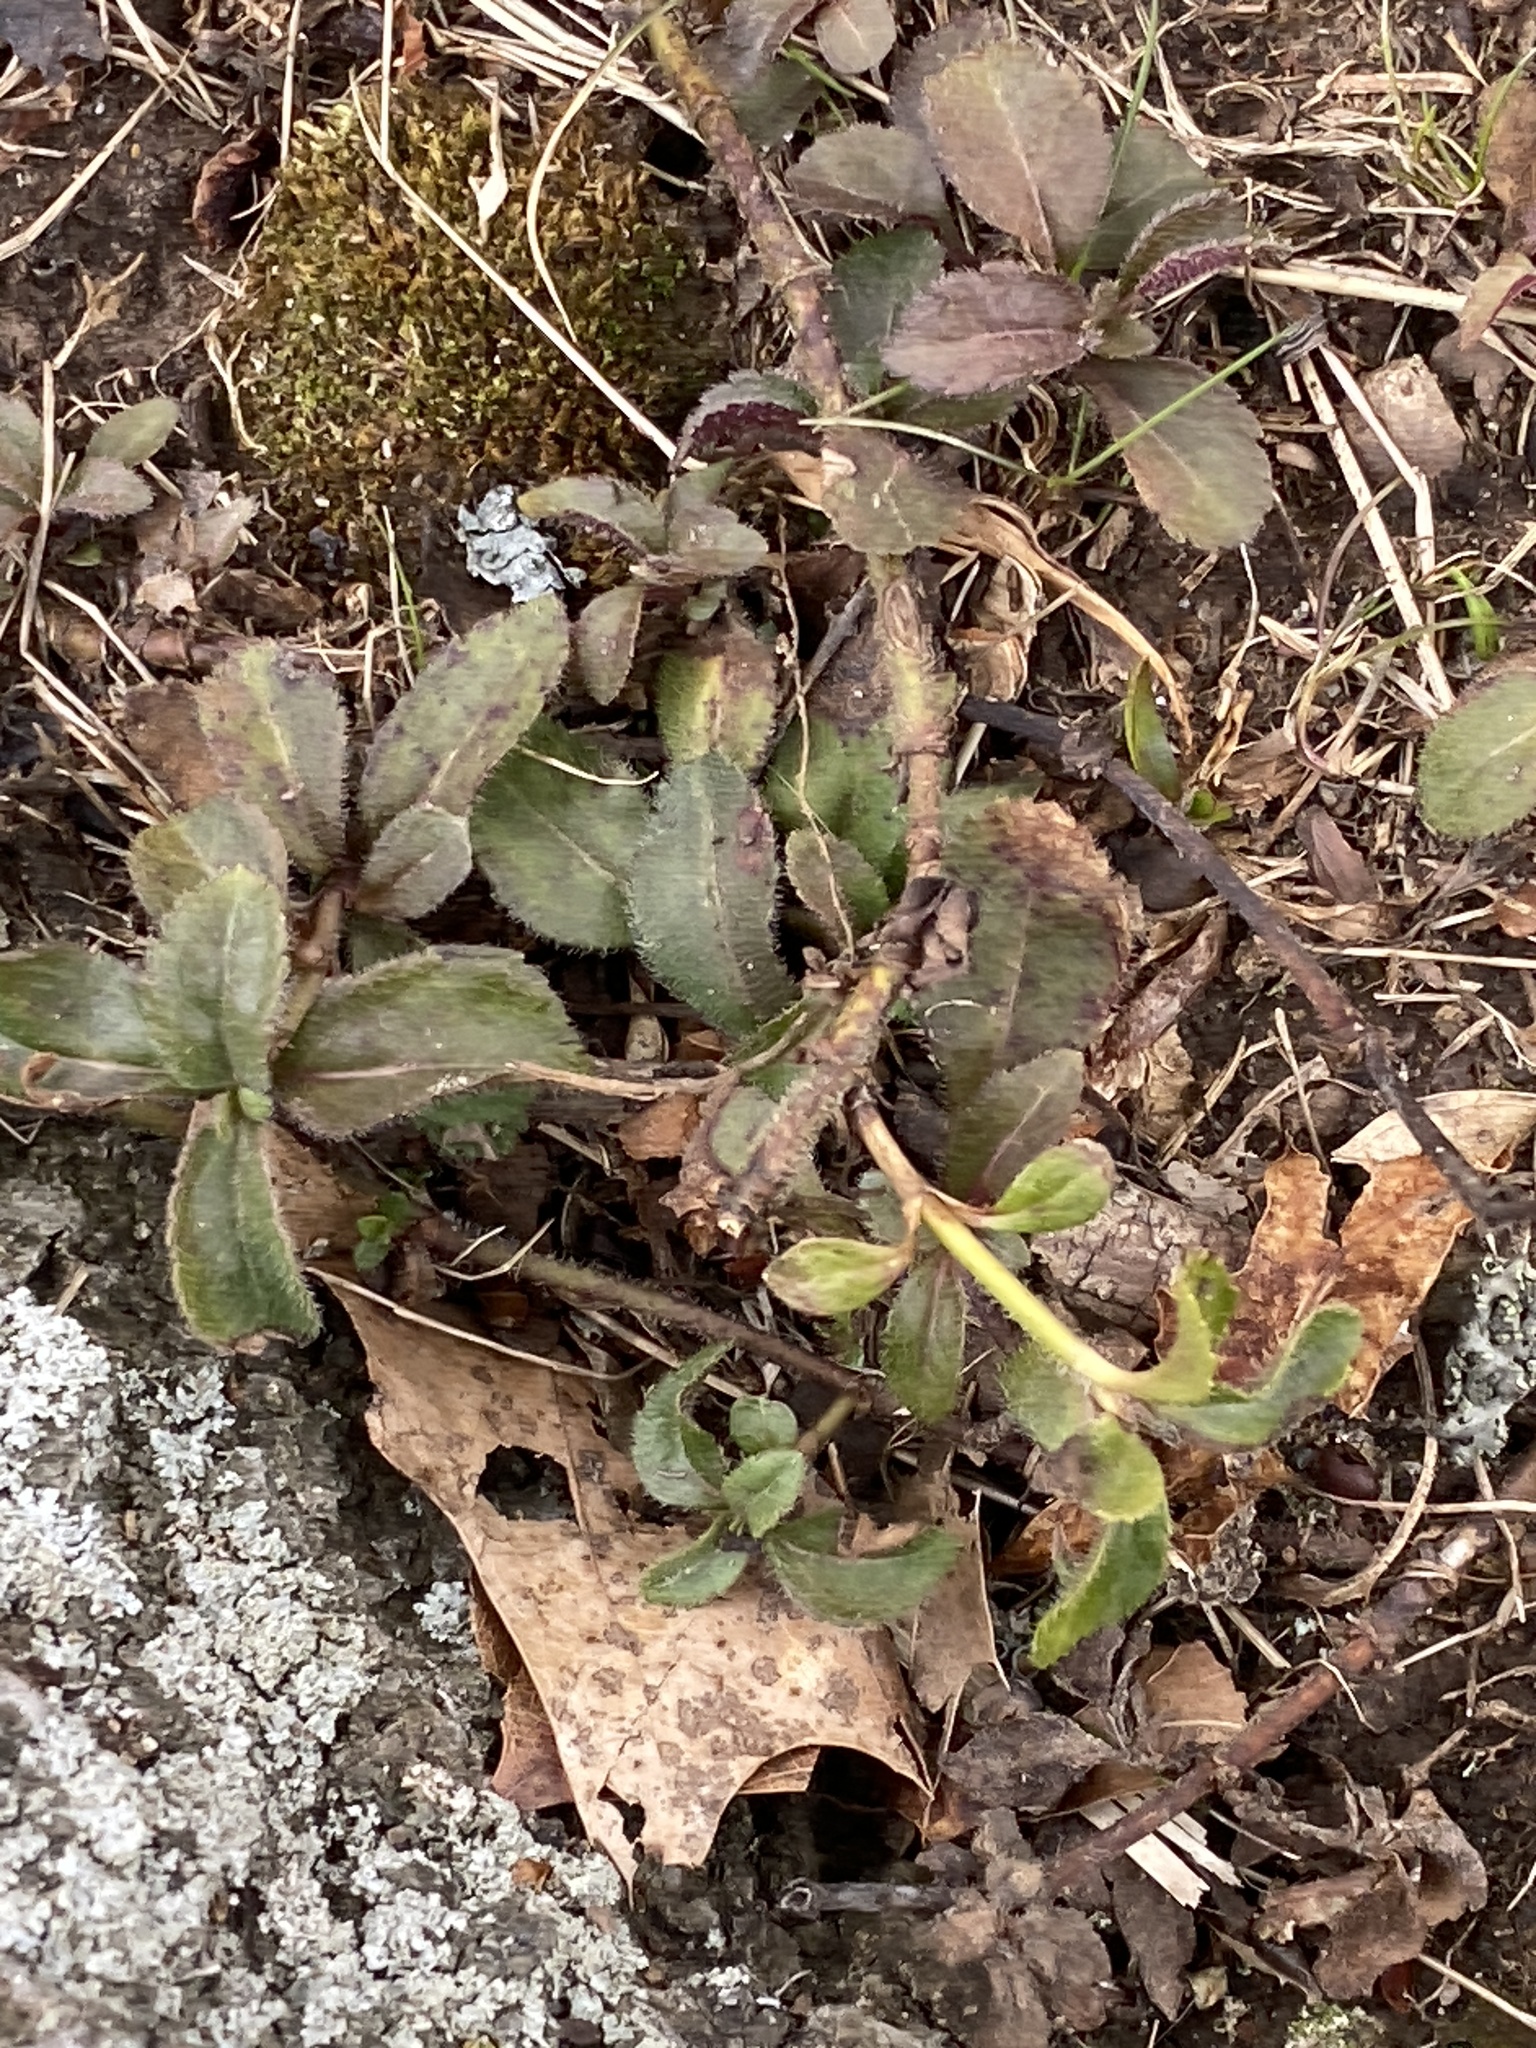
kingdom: Plantae
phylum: Tracheophyta
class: Magnoliopsida
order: Lamiales
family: Plantaginaceae
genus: Veronica
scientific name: Veronica officinalis
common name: Common speedwell
